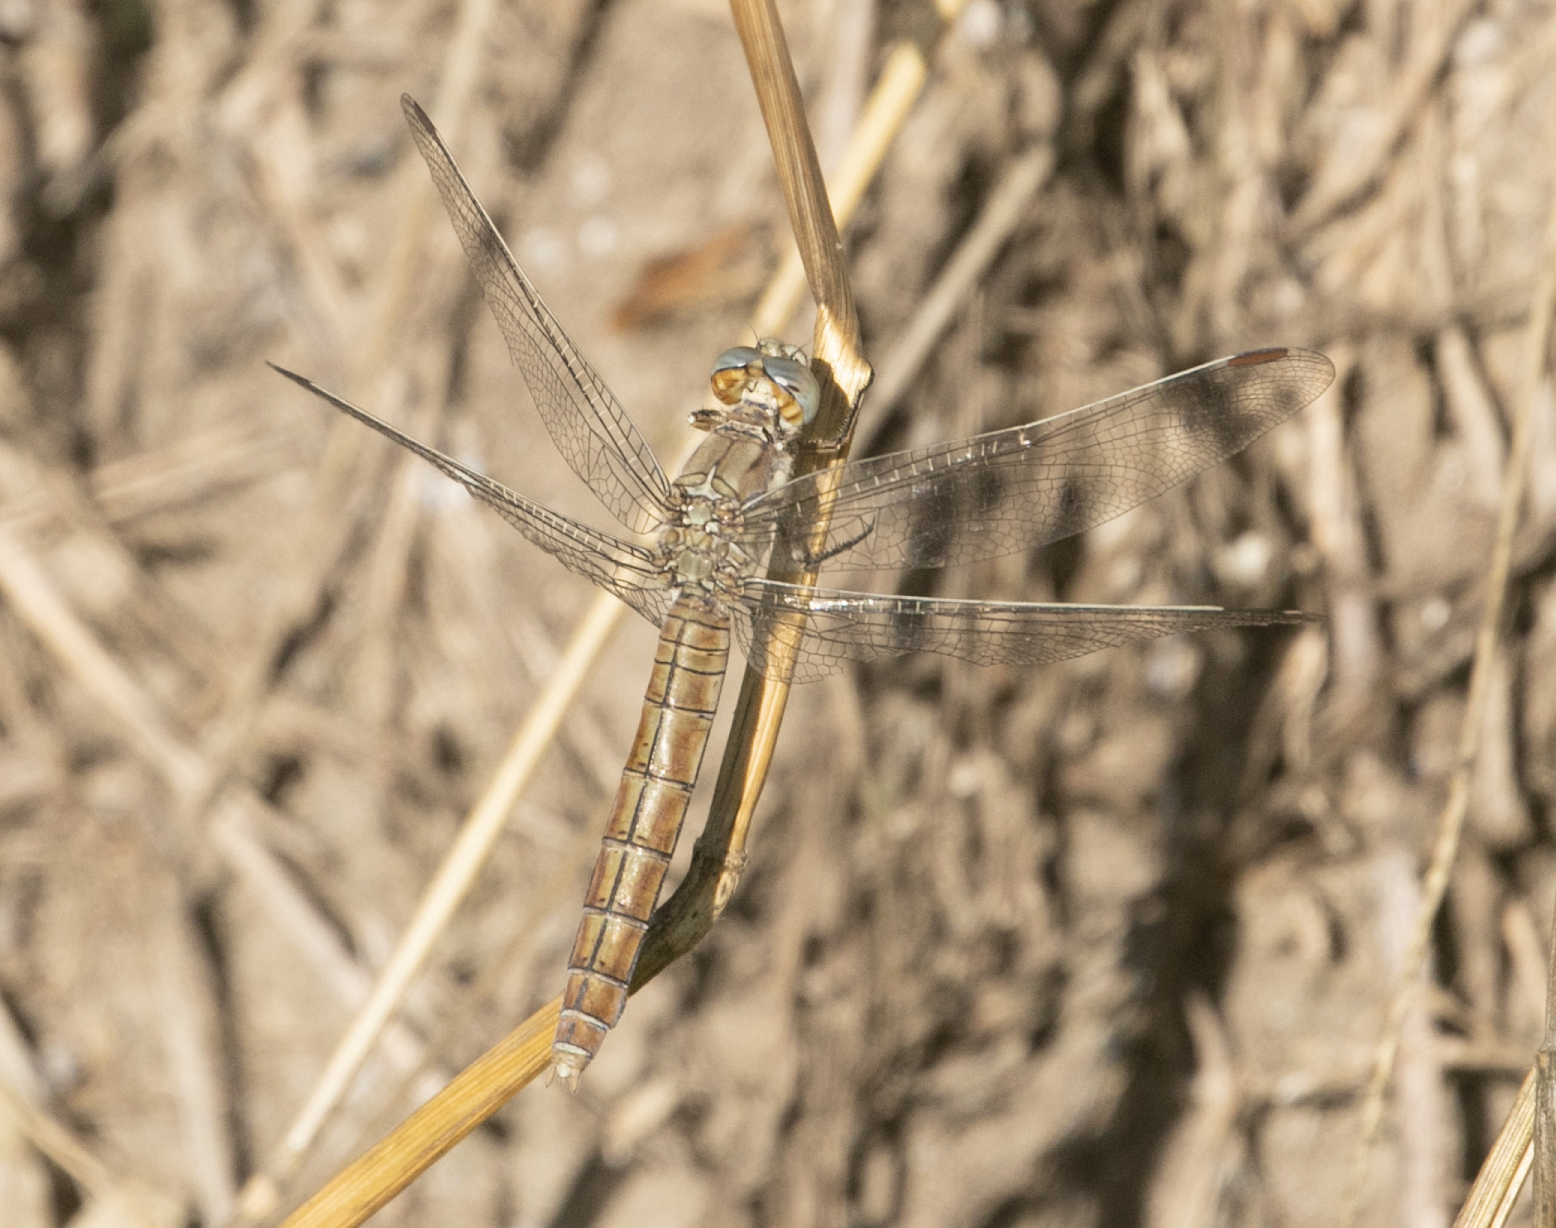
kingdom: Animalia
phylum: Arthropoda
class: Insecta
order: Odonata
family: Libellulidae
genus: Orthetrum
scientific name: Orthetrum brunneum
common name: Southern skimmer
